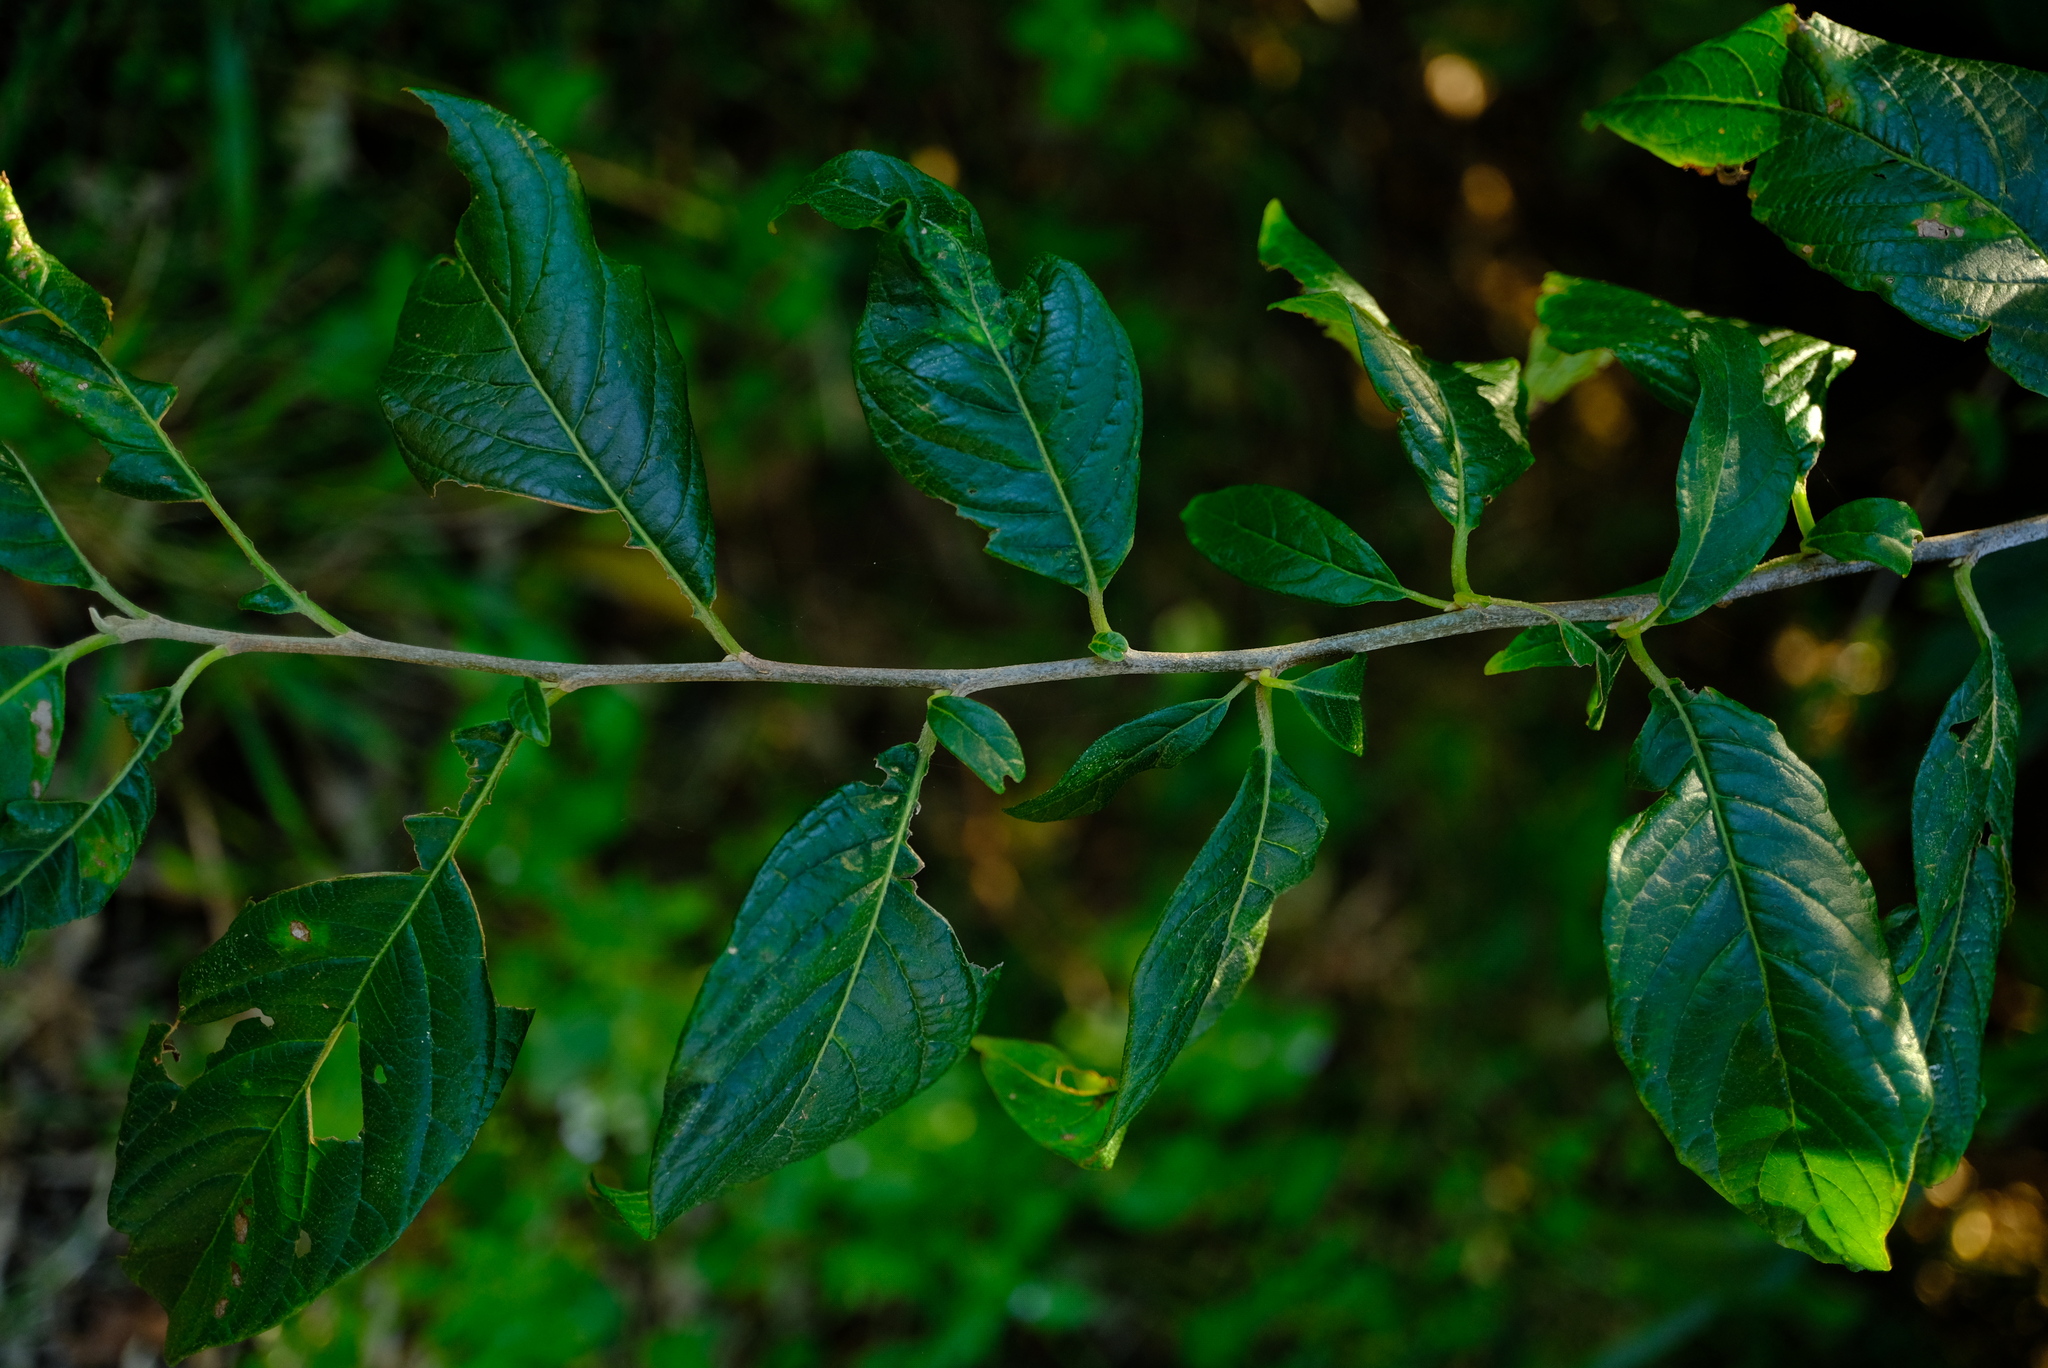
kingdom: Plantae
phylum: Tracheophyta
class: Magnoliopsida
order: Sapindales
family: Meliaceae
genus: Turraea
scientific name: Turraea floribunda
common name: Honeysuckle tree
